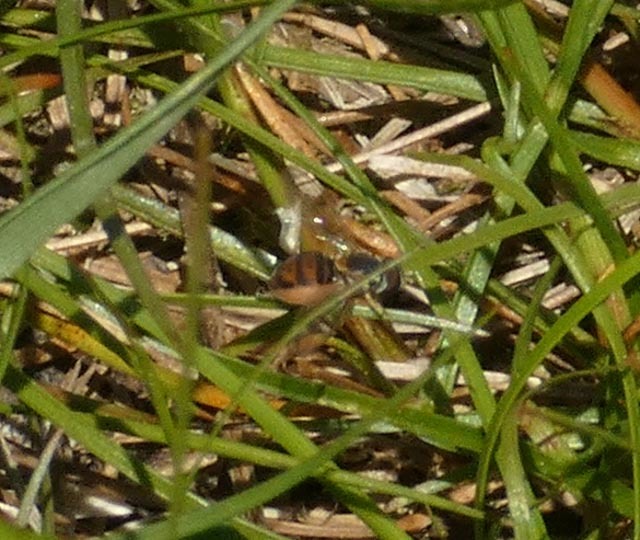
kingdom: Animalia
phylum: Arthropoda
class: Insecta
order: Diptera
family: Syrphidae
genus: Toxomerus
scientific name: Toxomerus marginatus
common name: Syrphid fly
